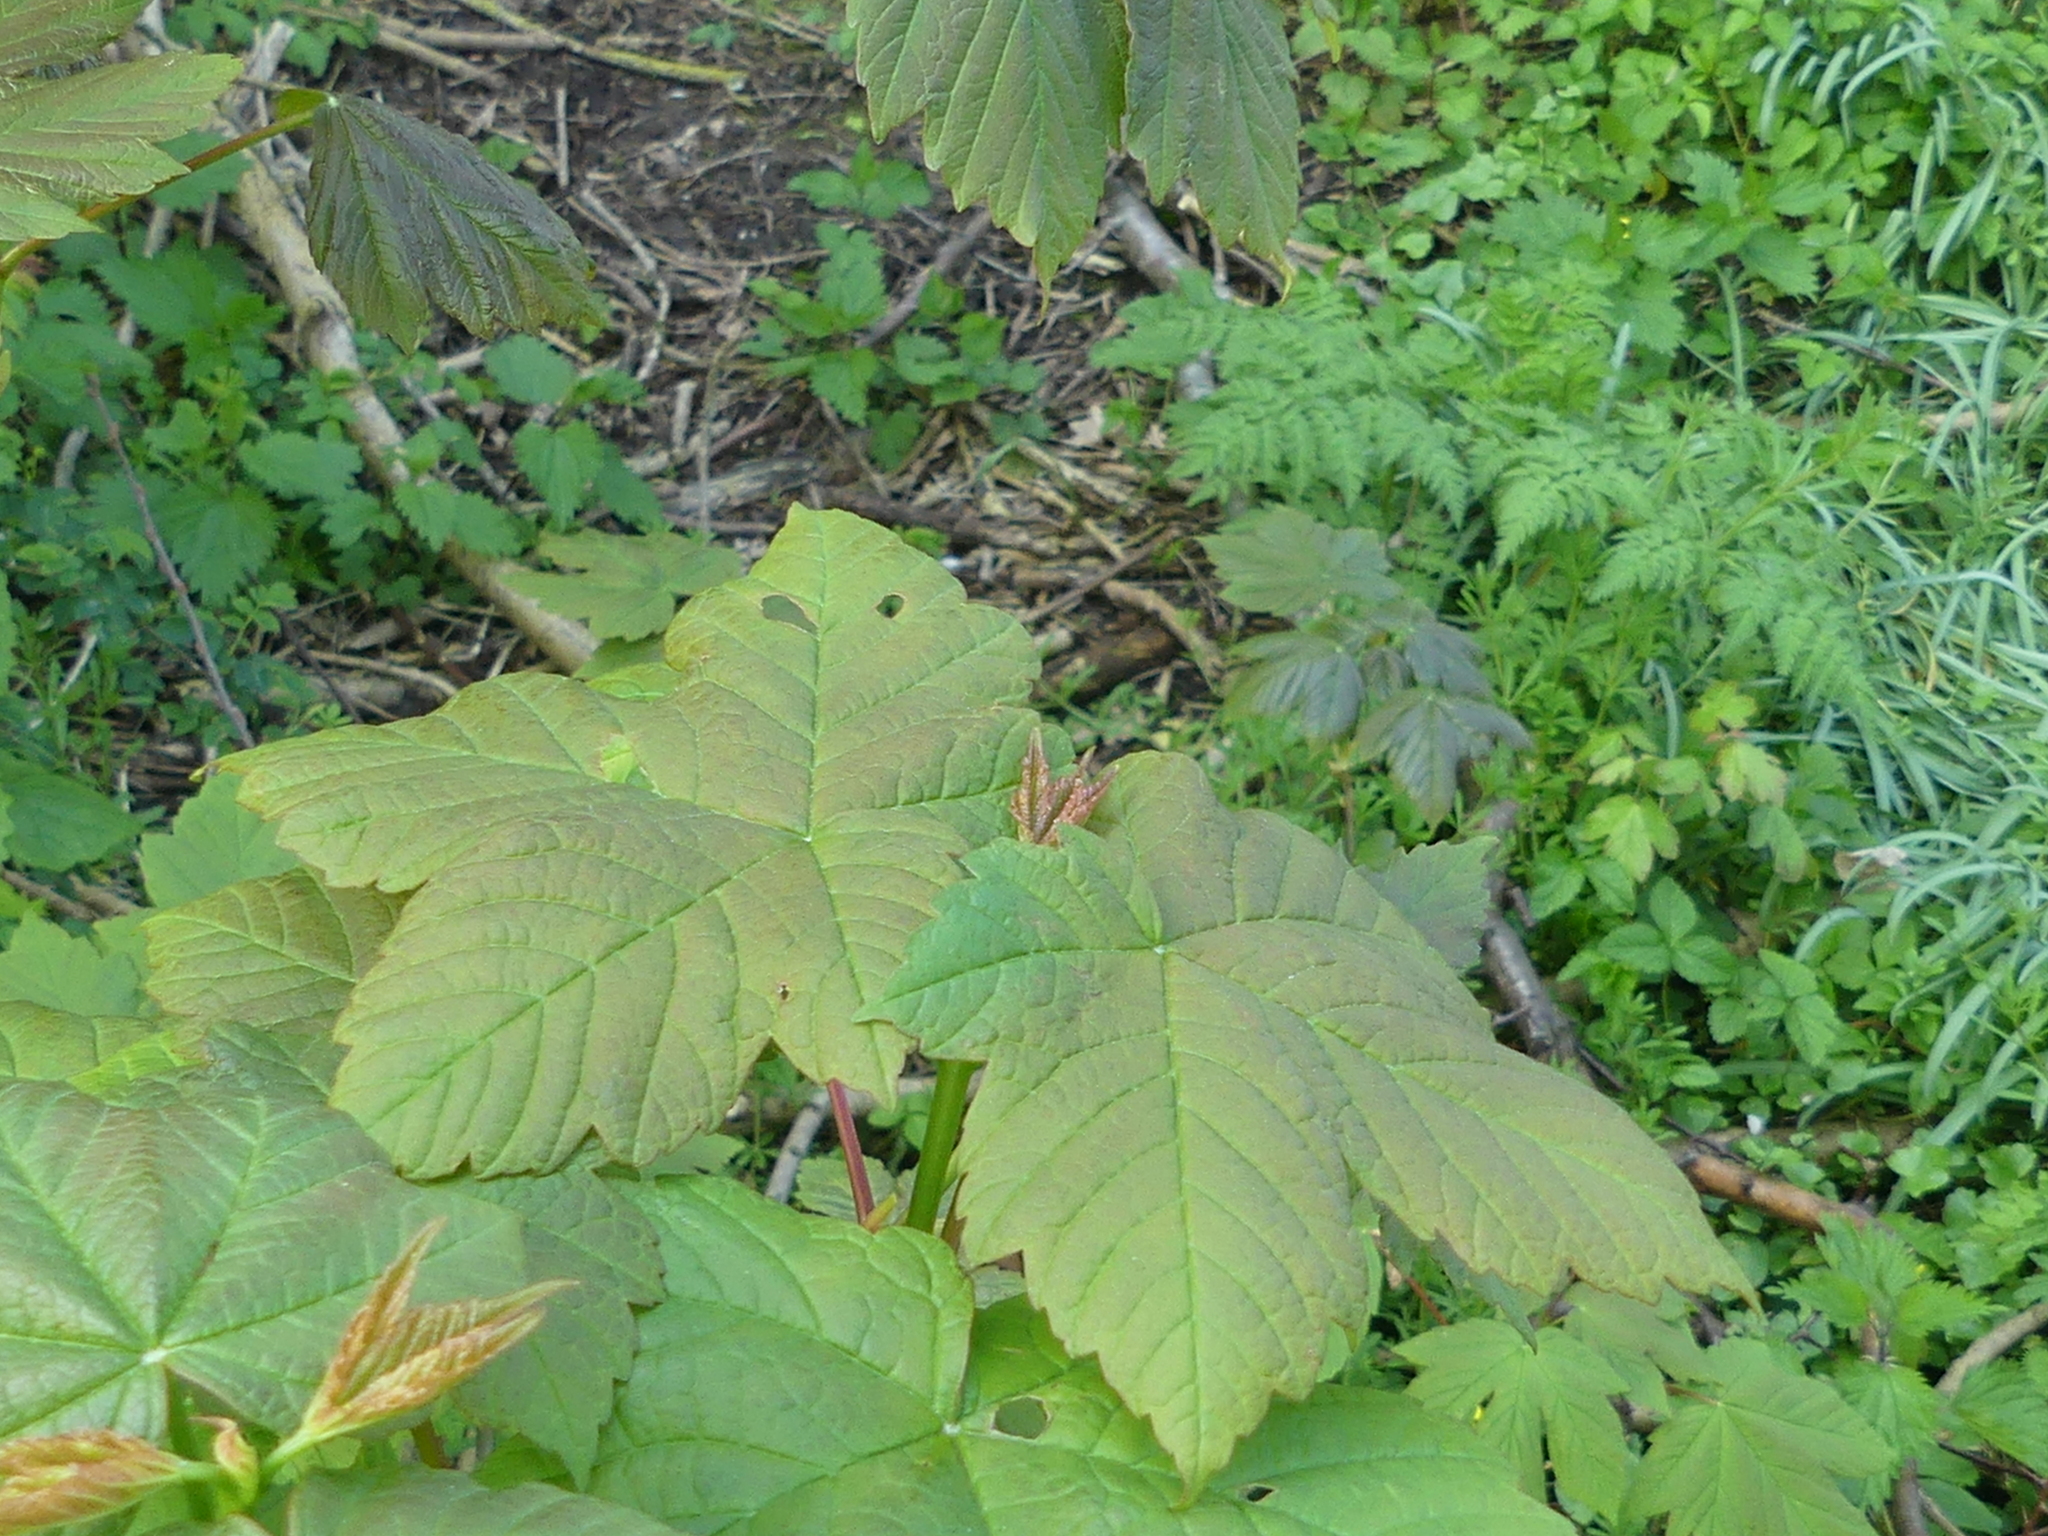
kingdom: Plantae
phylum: Tracheophyta
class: Magnoliopsida
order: Sapindales
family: Sapindaceae
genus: Acer
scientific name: Acer pseudoplatanus
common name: Sycamore
